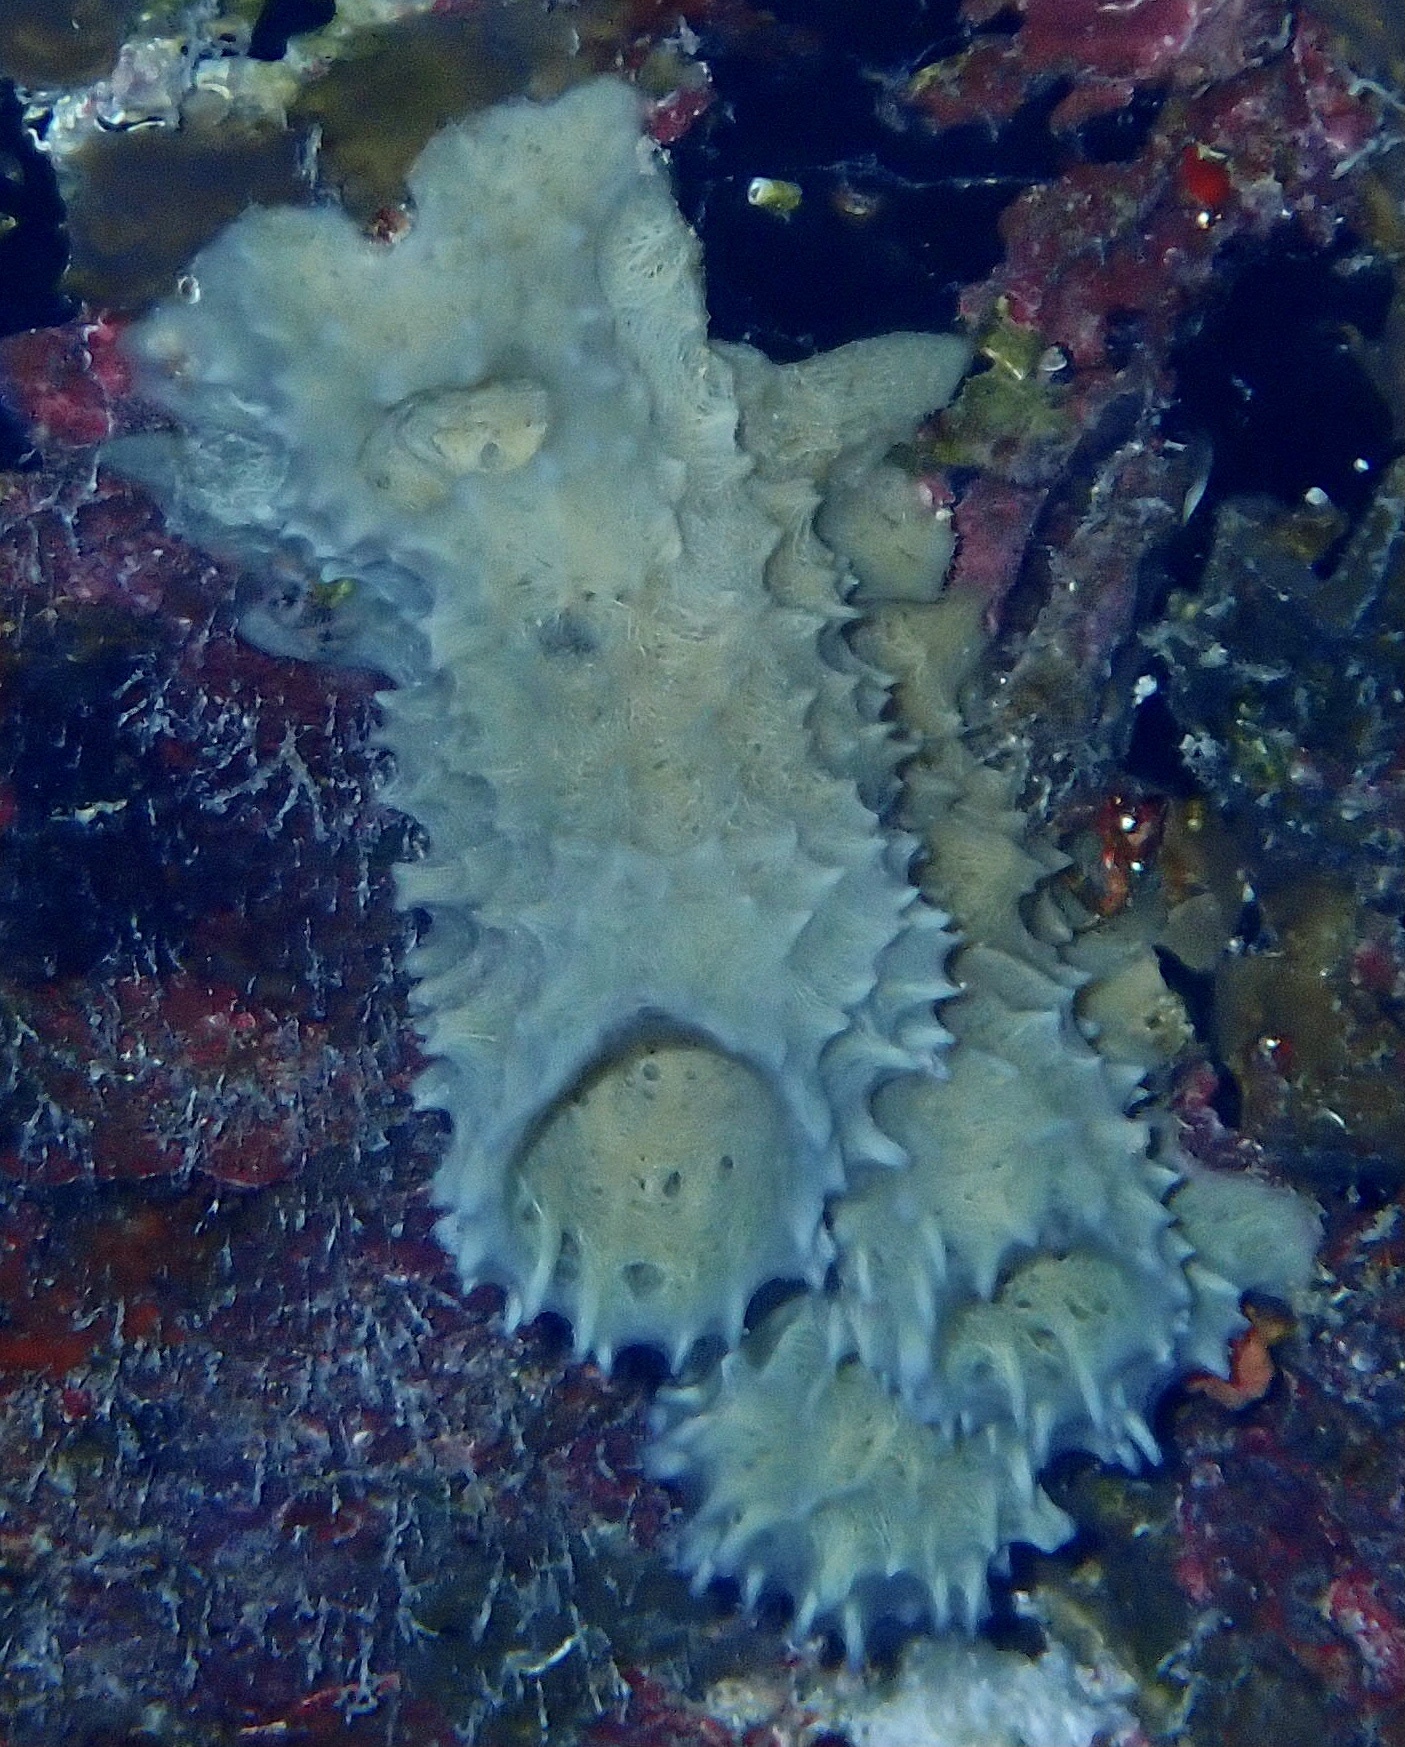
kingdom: Animalia
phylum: Porifera
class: Demospongiae
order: Haplosclerida
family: Callyspongiidae
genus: Callyspongia
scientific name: Callyspongia aculeata
